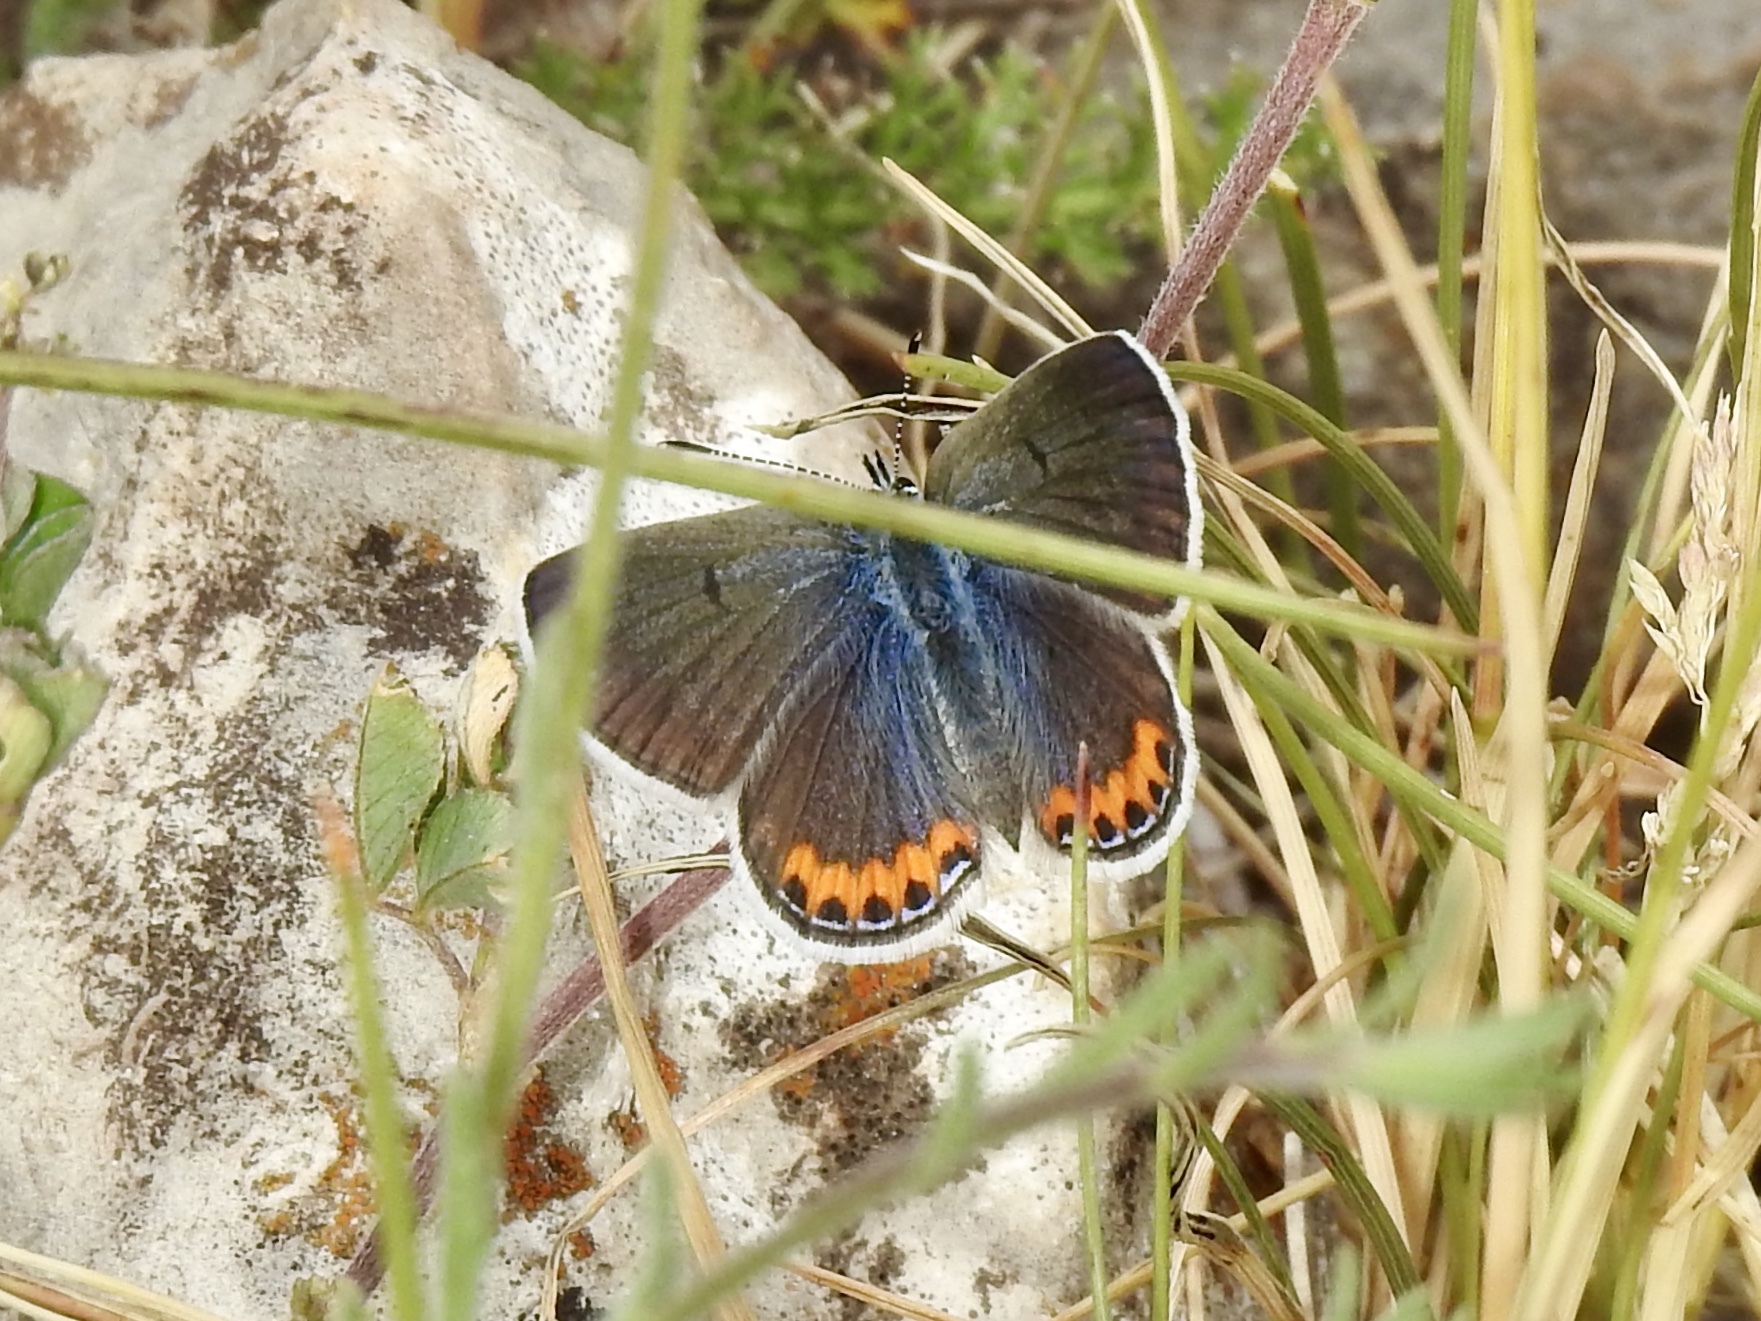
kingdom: Animalia
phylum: Arthropoda
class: Insecta
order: Lepidoptera
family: Lycaenidae
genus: Icaricia
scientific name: Icaricia lupini
